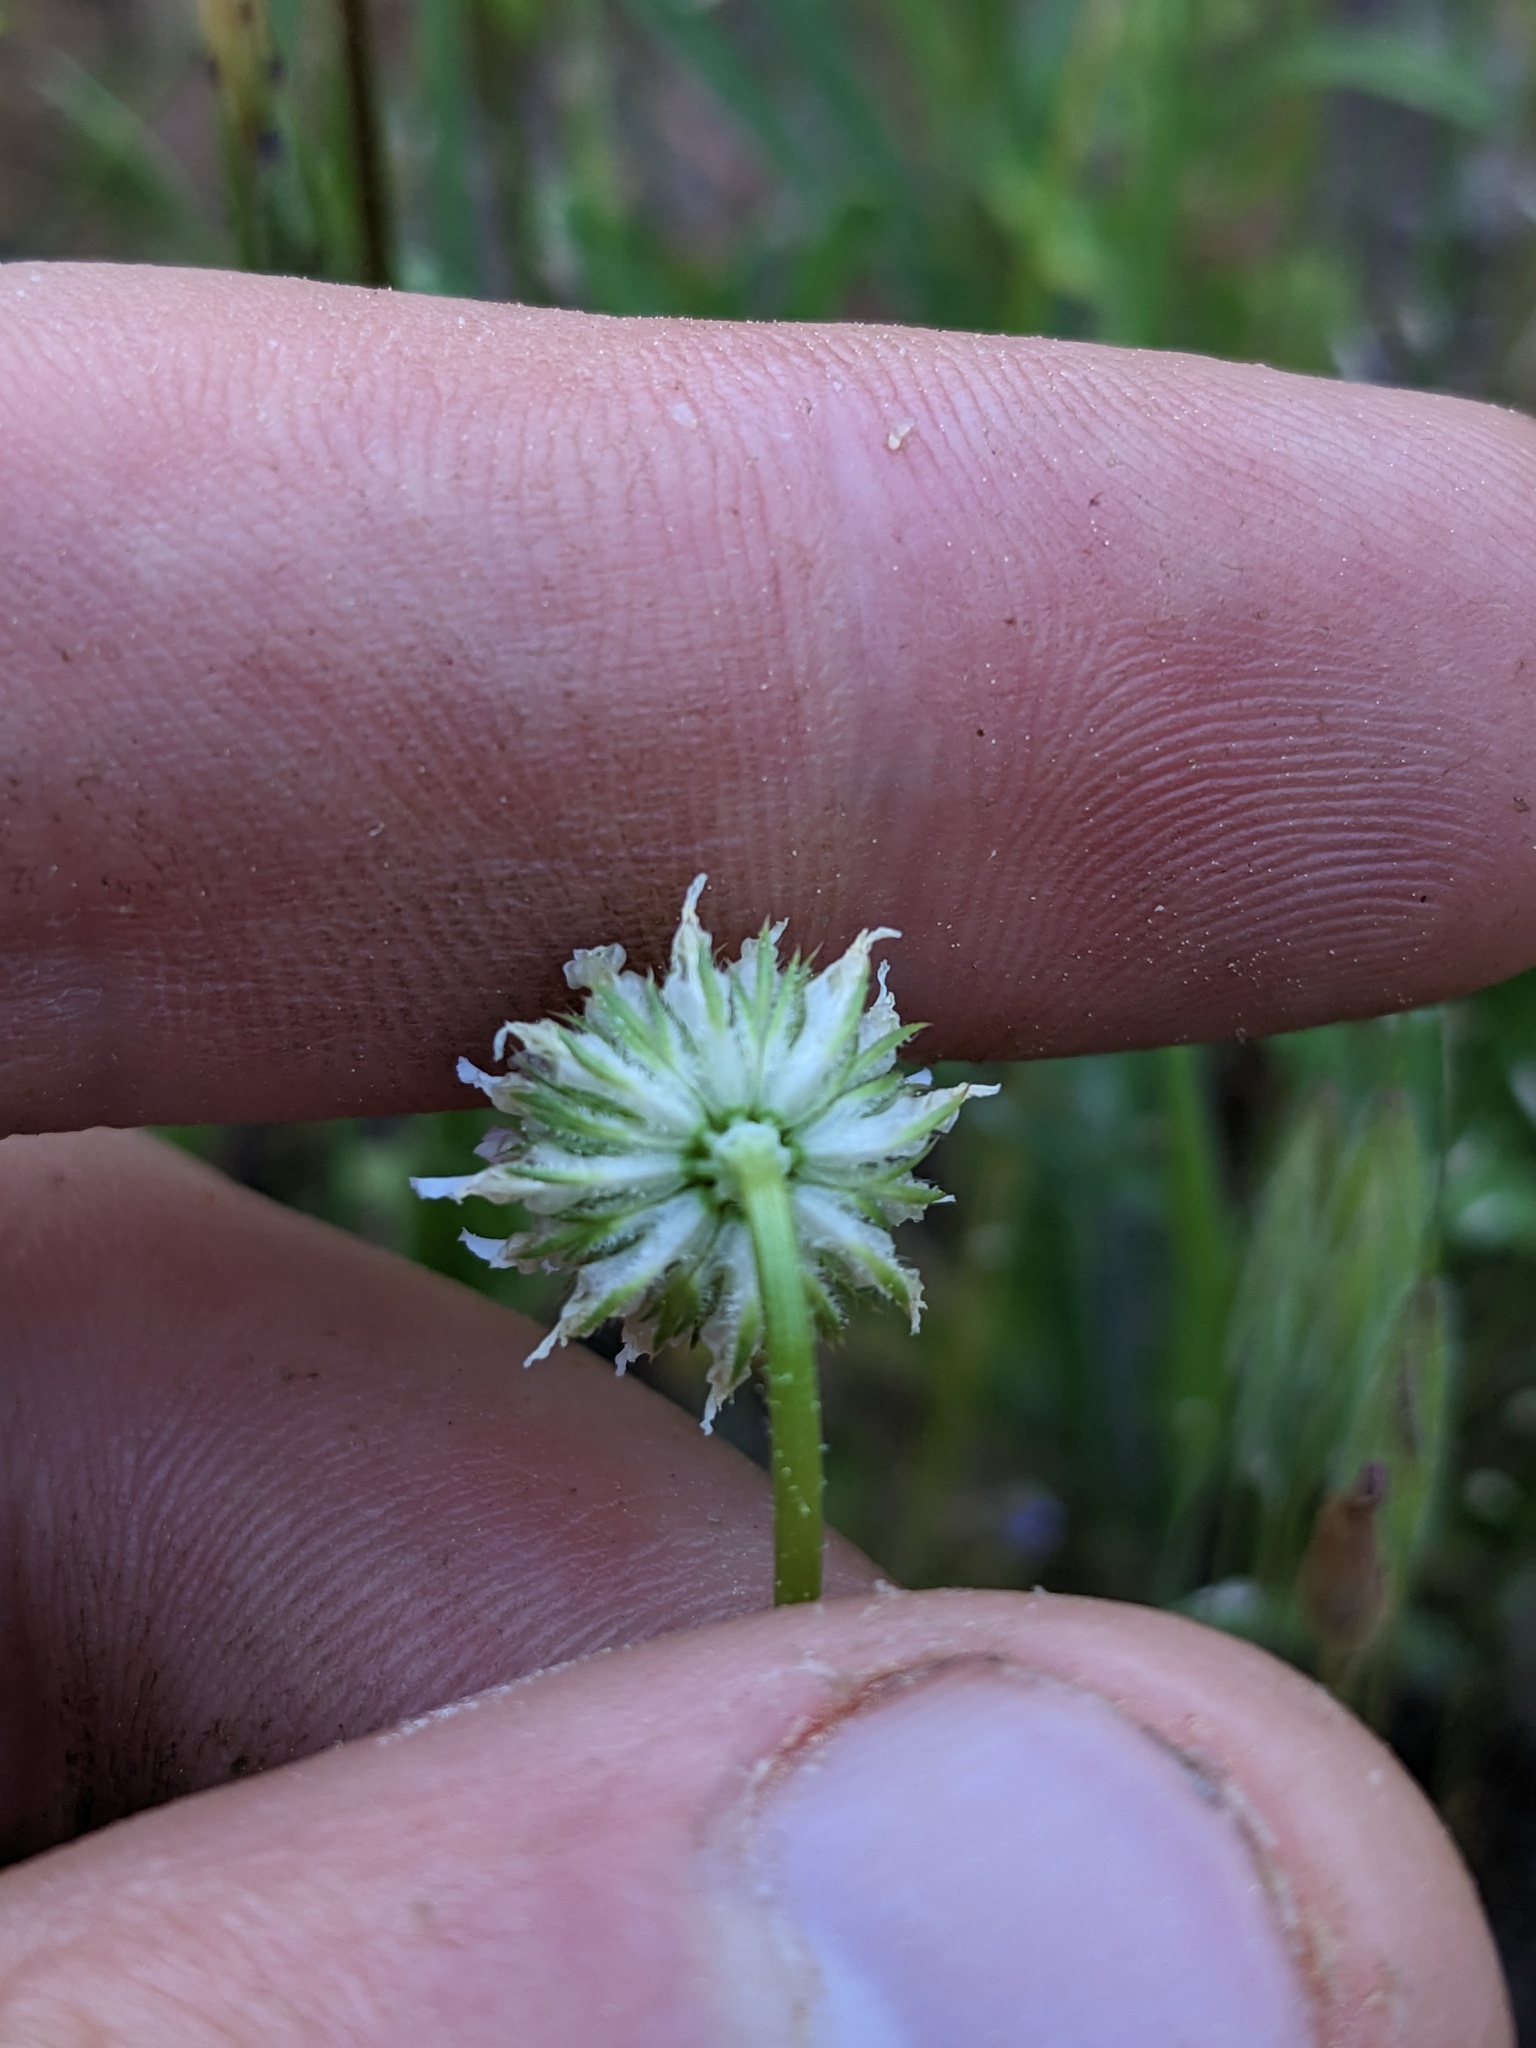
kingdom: Plantae
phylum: Tracheophyta
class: Magnoliopsida
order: Fabales
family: Fabaceae
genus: Trifolium
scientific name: Trifolium ciliolatum
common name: Foothill clover
